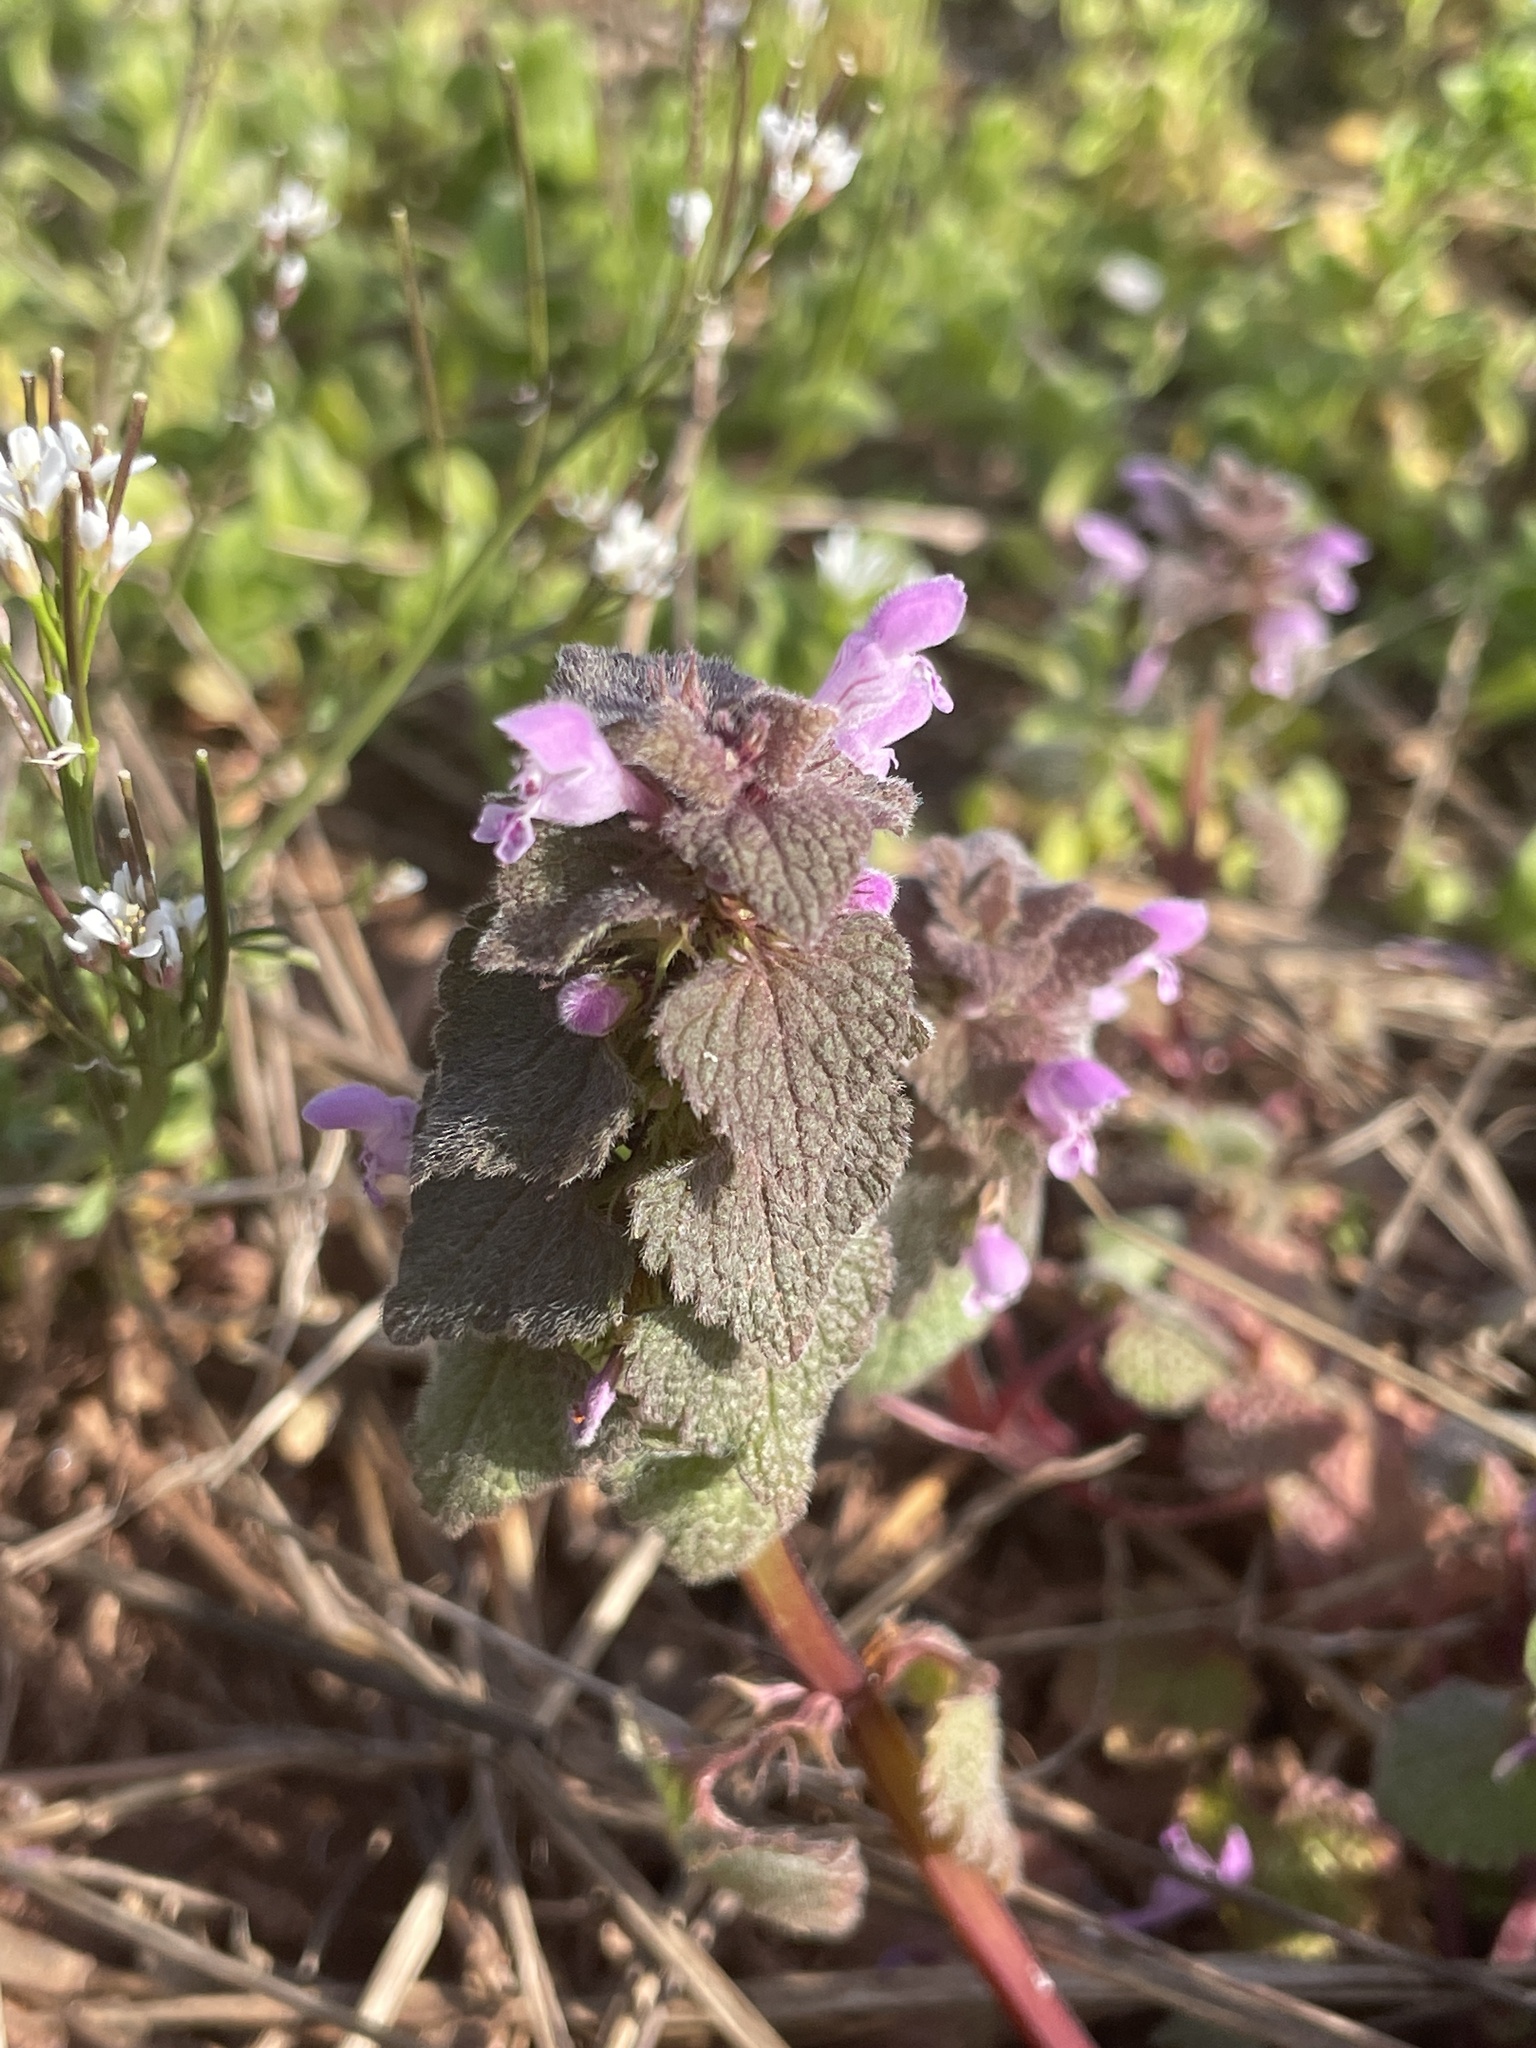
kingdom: Plantae
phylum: Tracheophyta
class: Magnoliopsida
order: Lamiales
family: Lamiaceae
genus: Lamium
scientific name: Lamium purpureum
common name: Red dead-nettle
